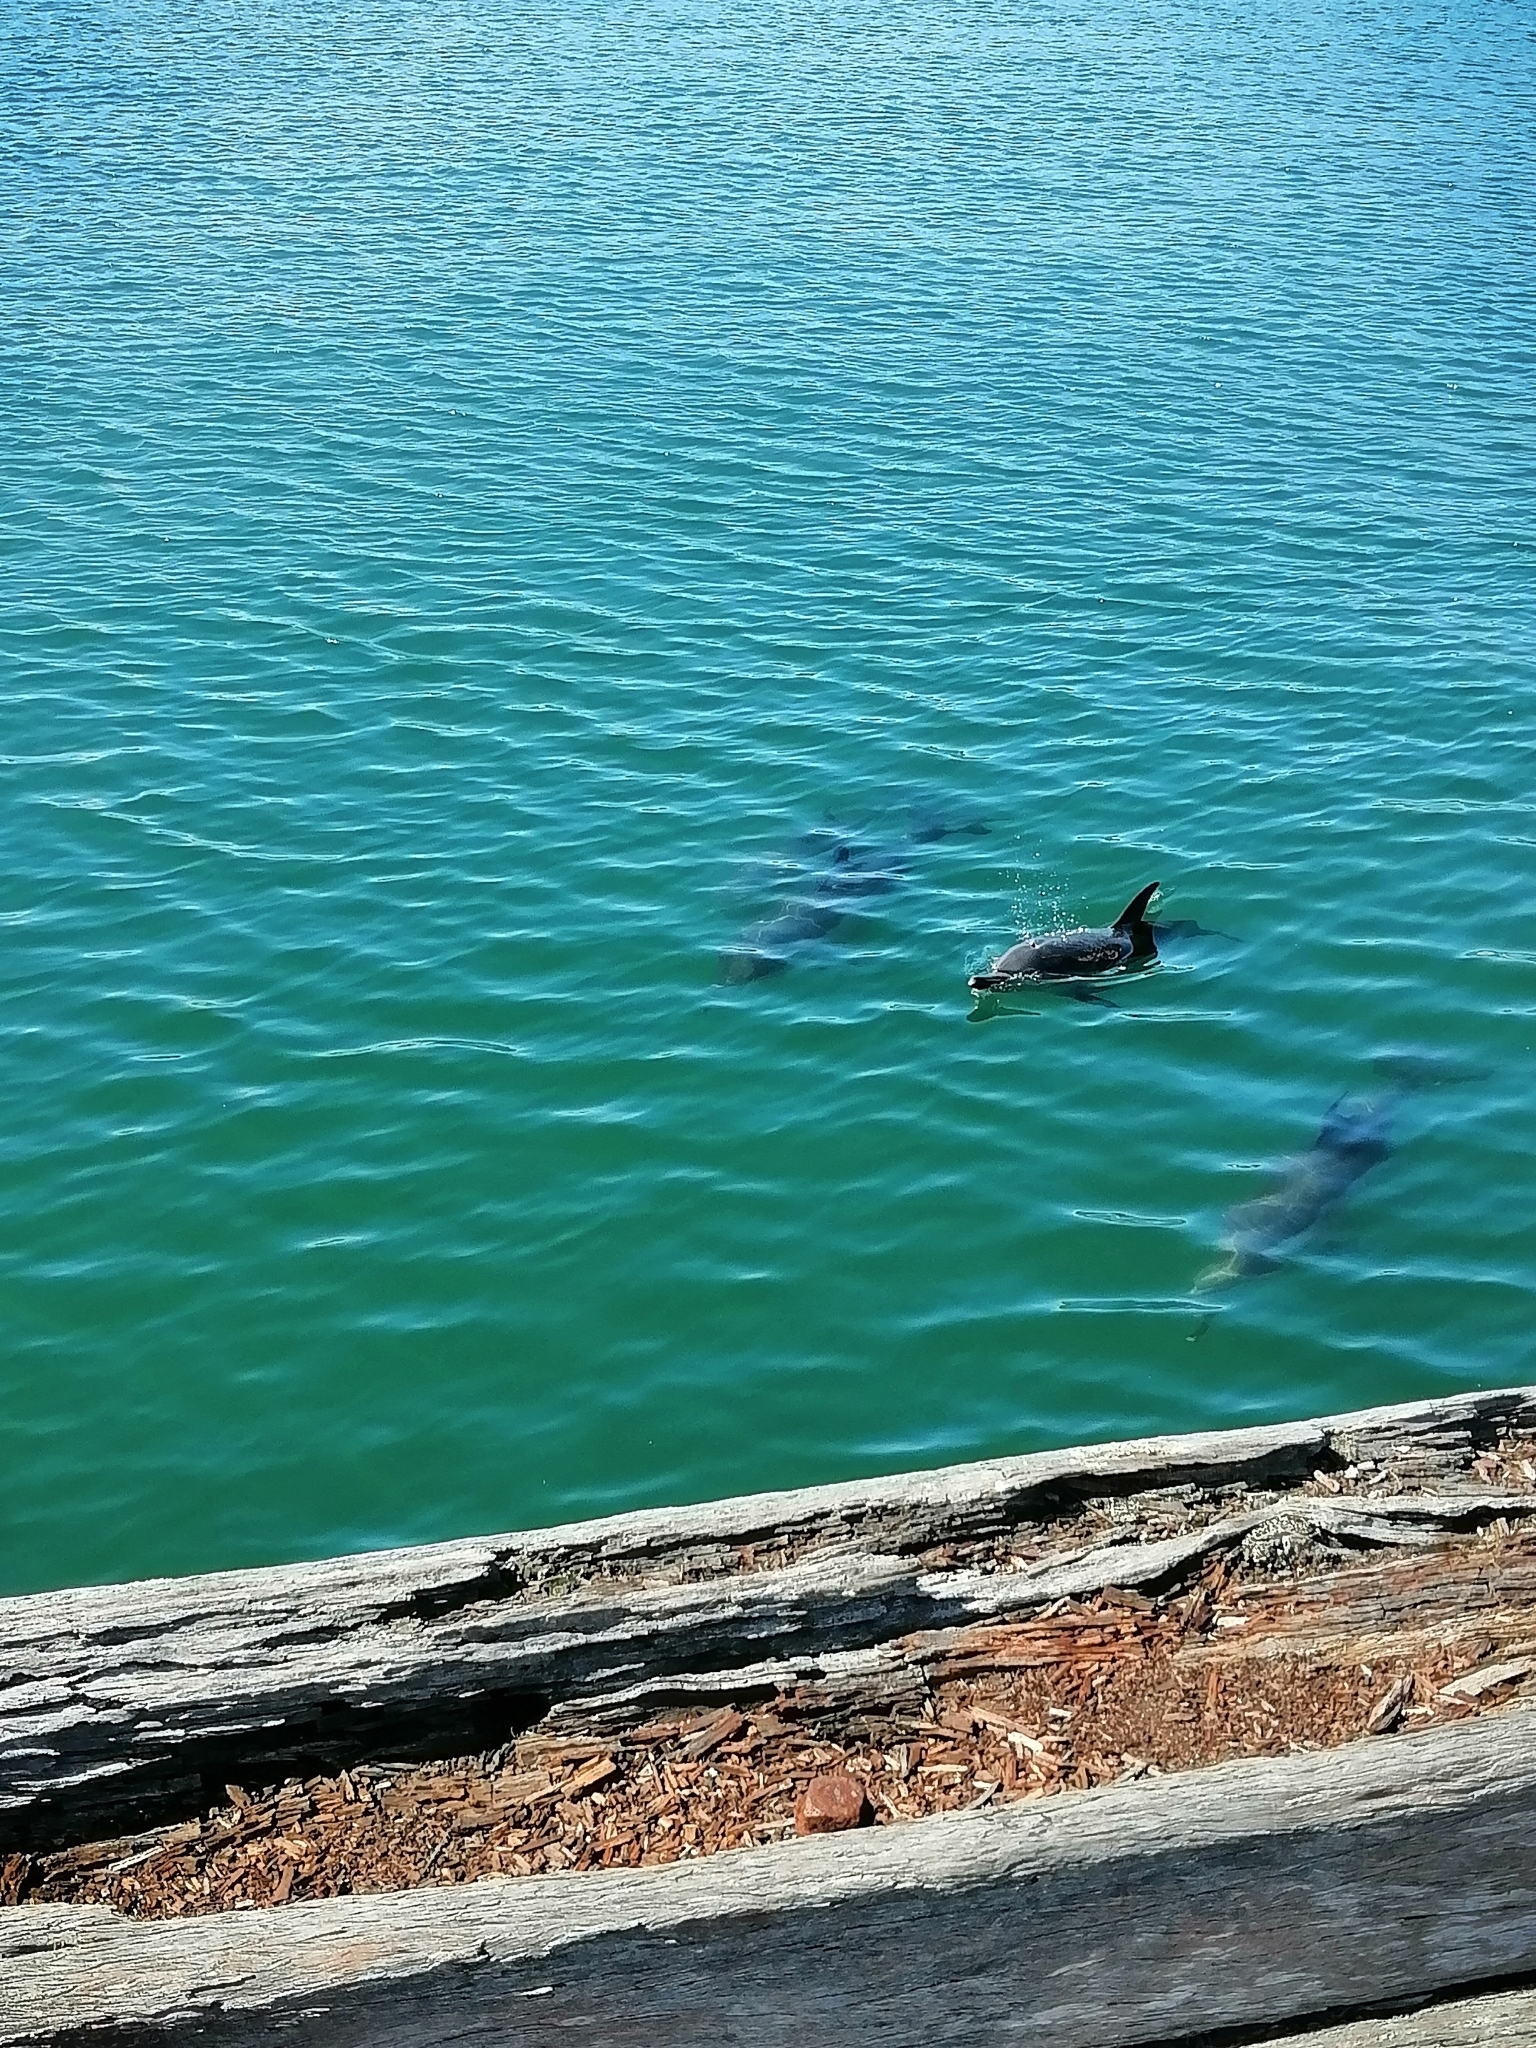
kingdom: Animalia
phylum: Chordata
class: Mammalia
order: Cetacea
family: Delphinidae
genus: Delphinus
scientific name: Delphinus delphis
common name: Common dolphin
